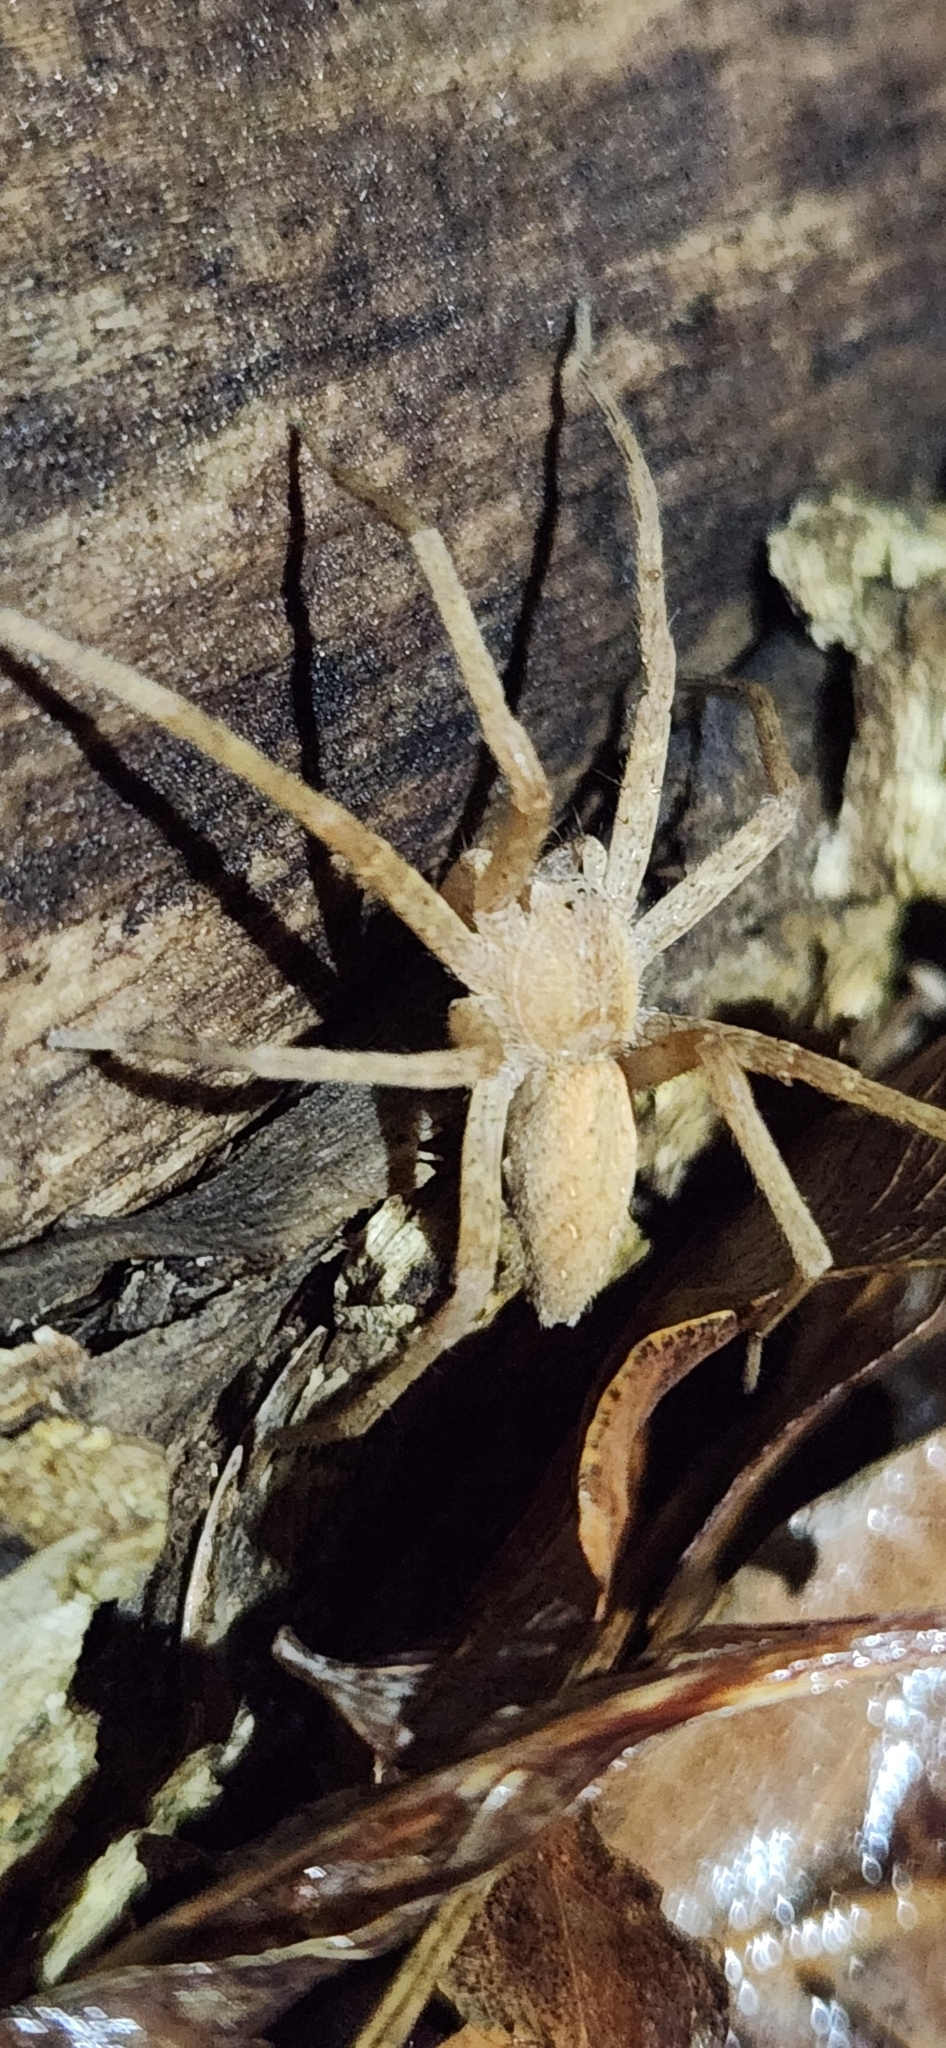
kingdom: Animalia
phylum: Arthropoda
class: Arachnida
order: Araneae
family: Pisauridae
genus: Pisaurina
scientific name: Pisaurina mira
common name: American nursery web spider
